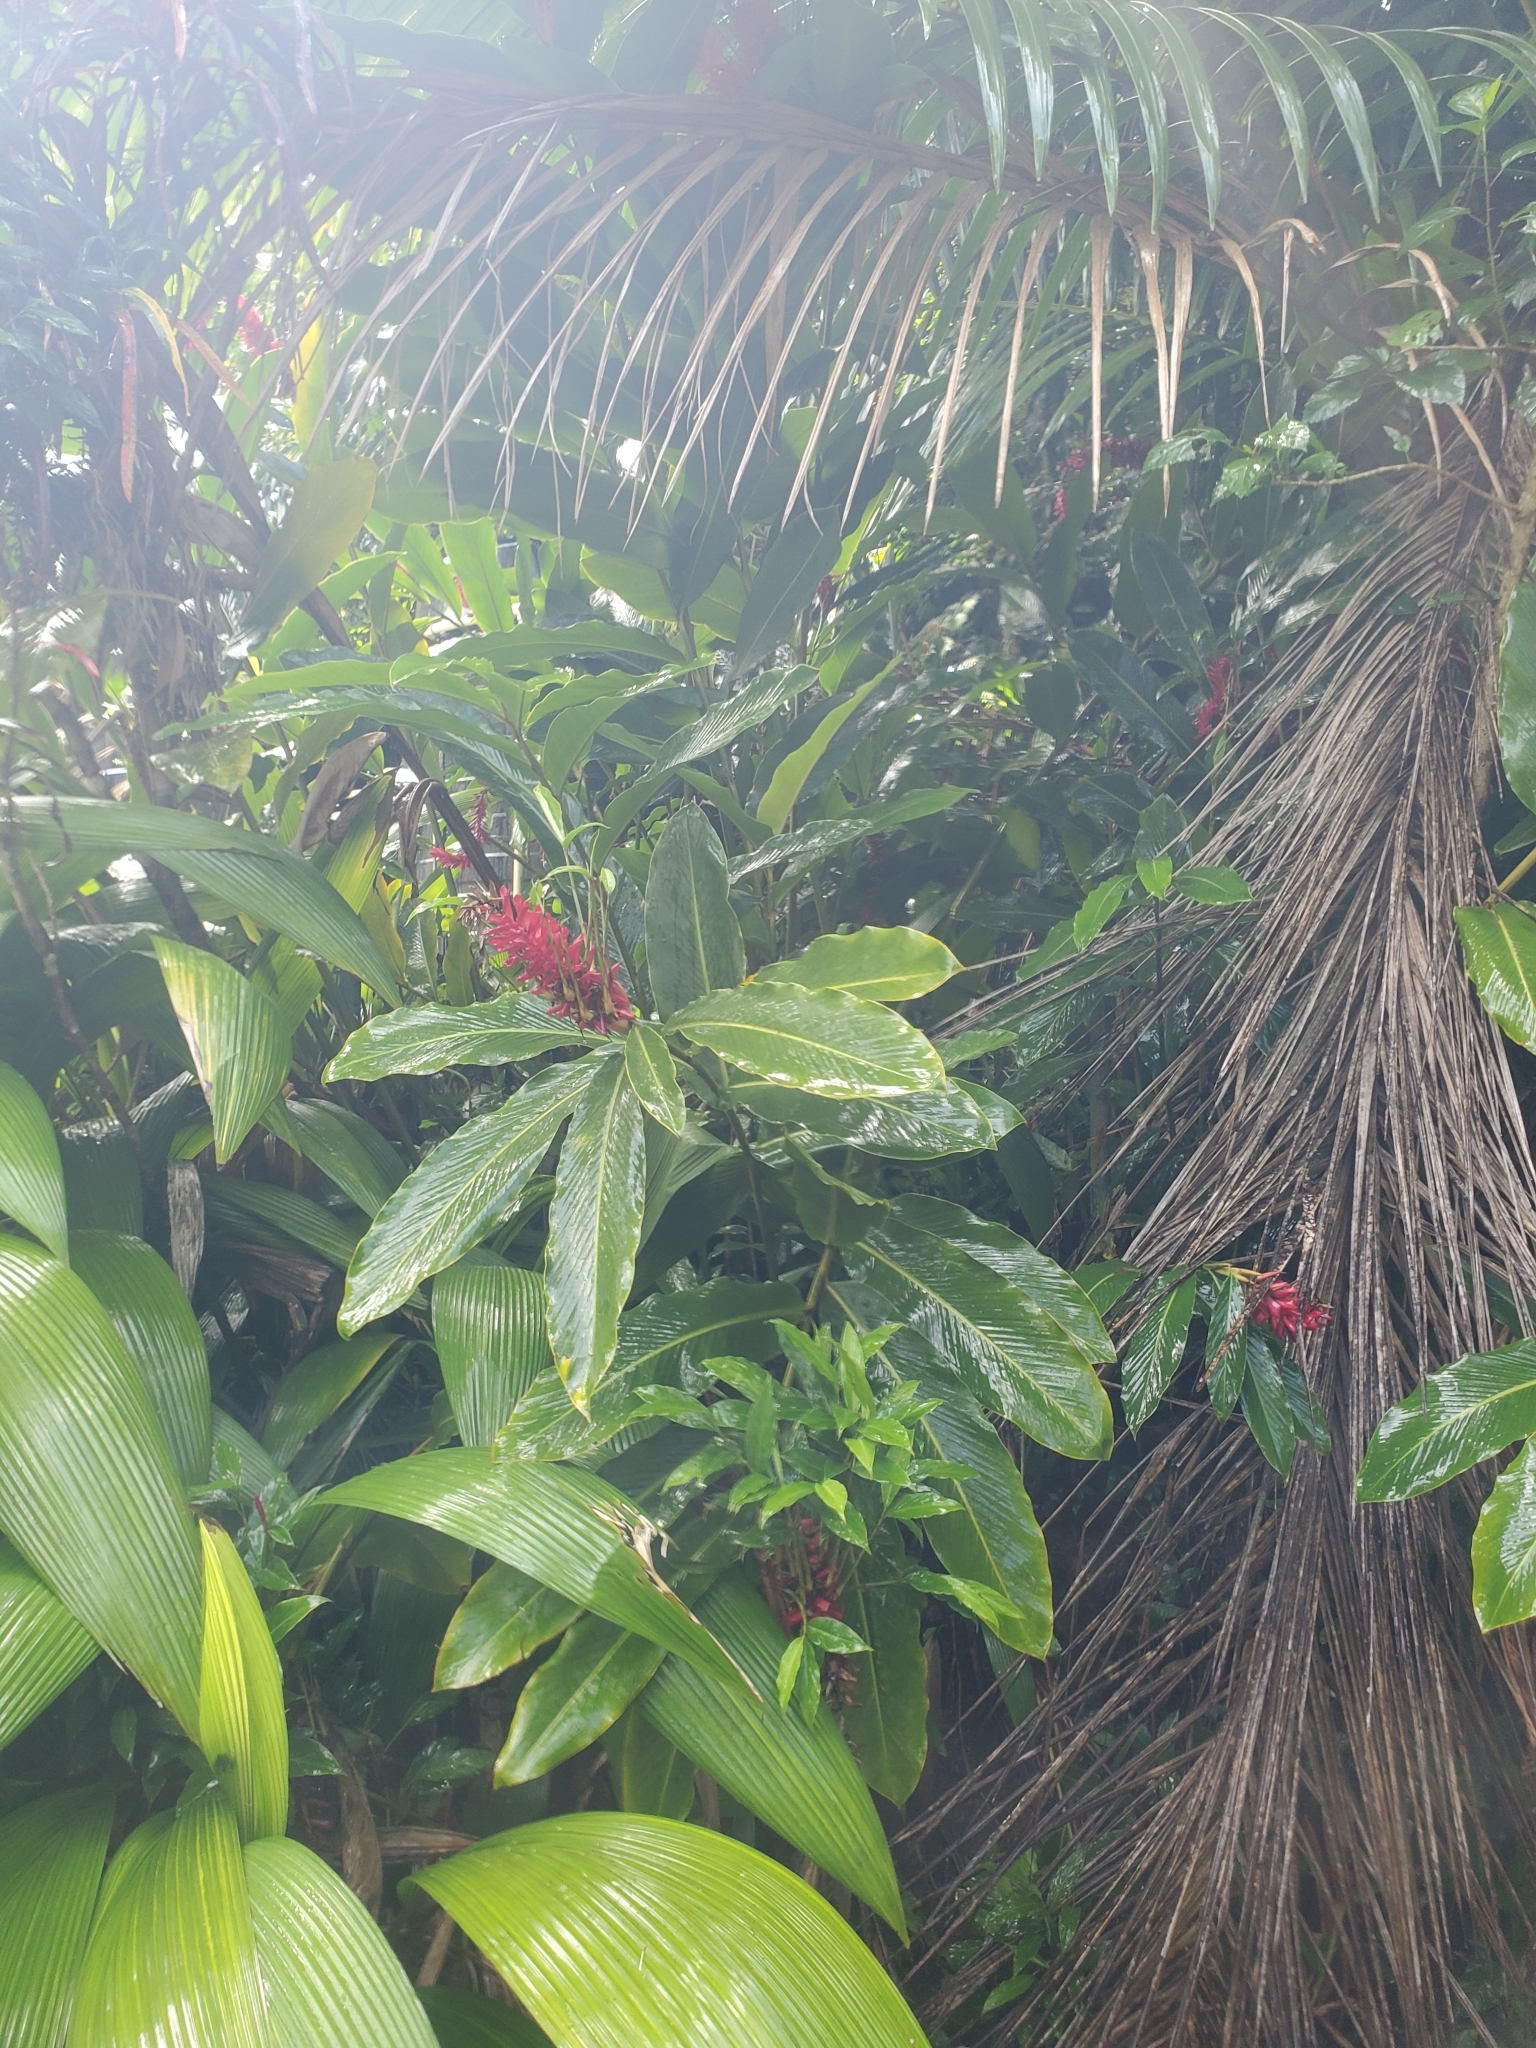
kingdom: Plantae
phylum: Tracheophyta
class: Liliopsida
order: Zingiberales
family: Zingiberaceae
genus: Alpinia
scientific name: Alpinia purpurata
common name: Red ginger
